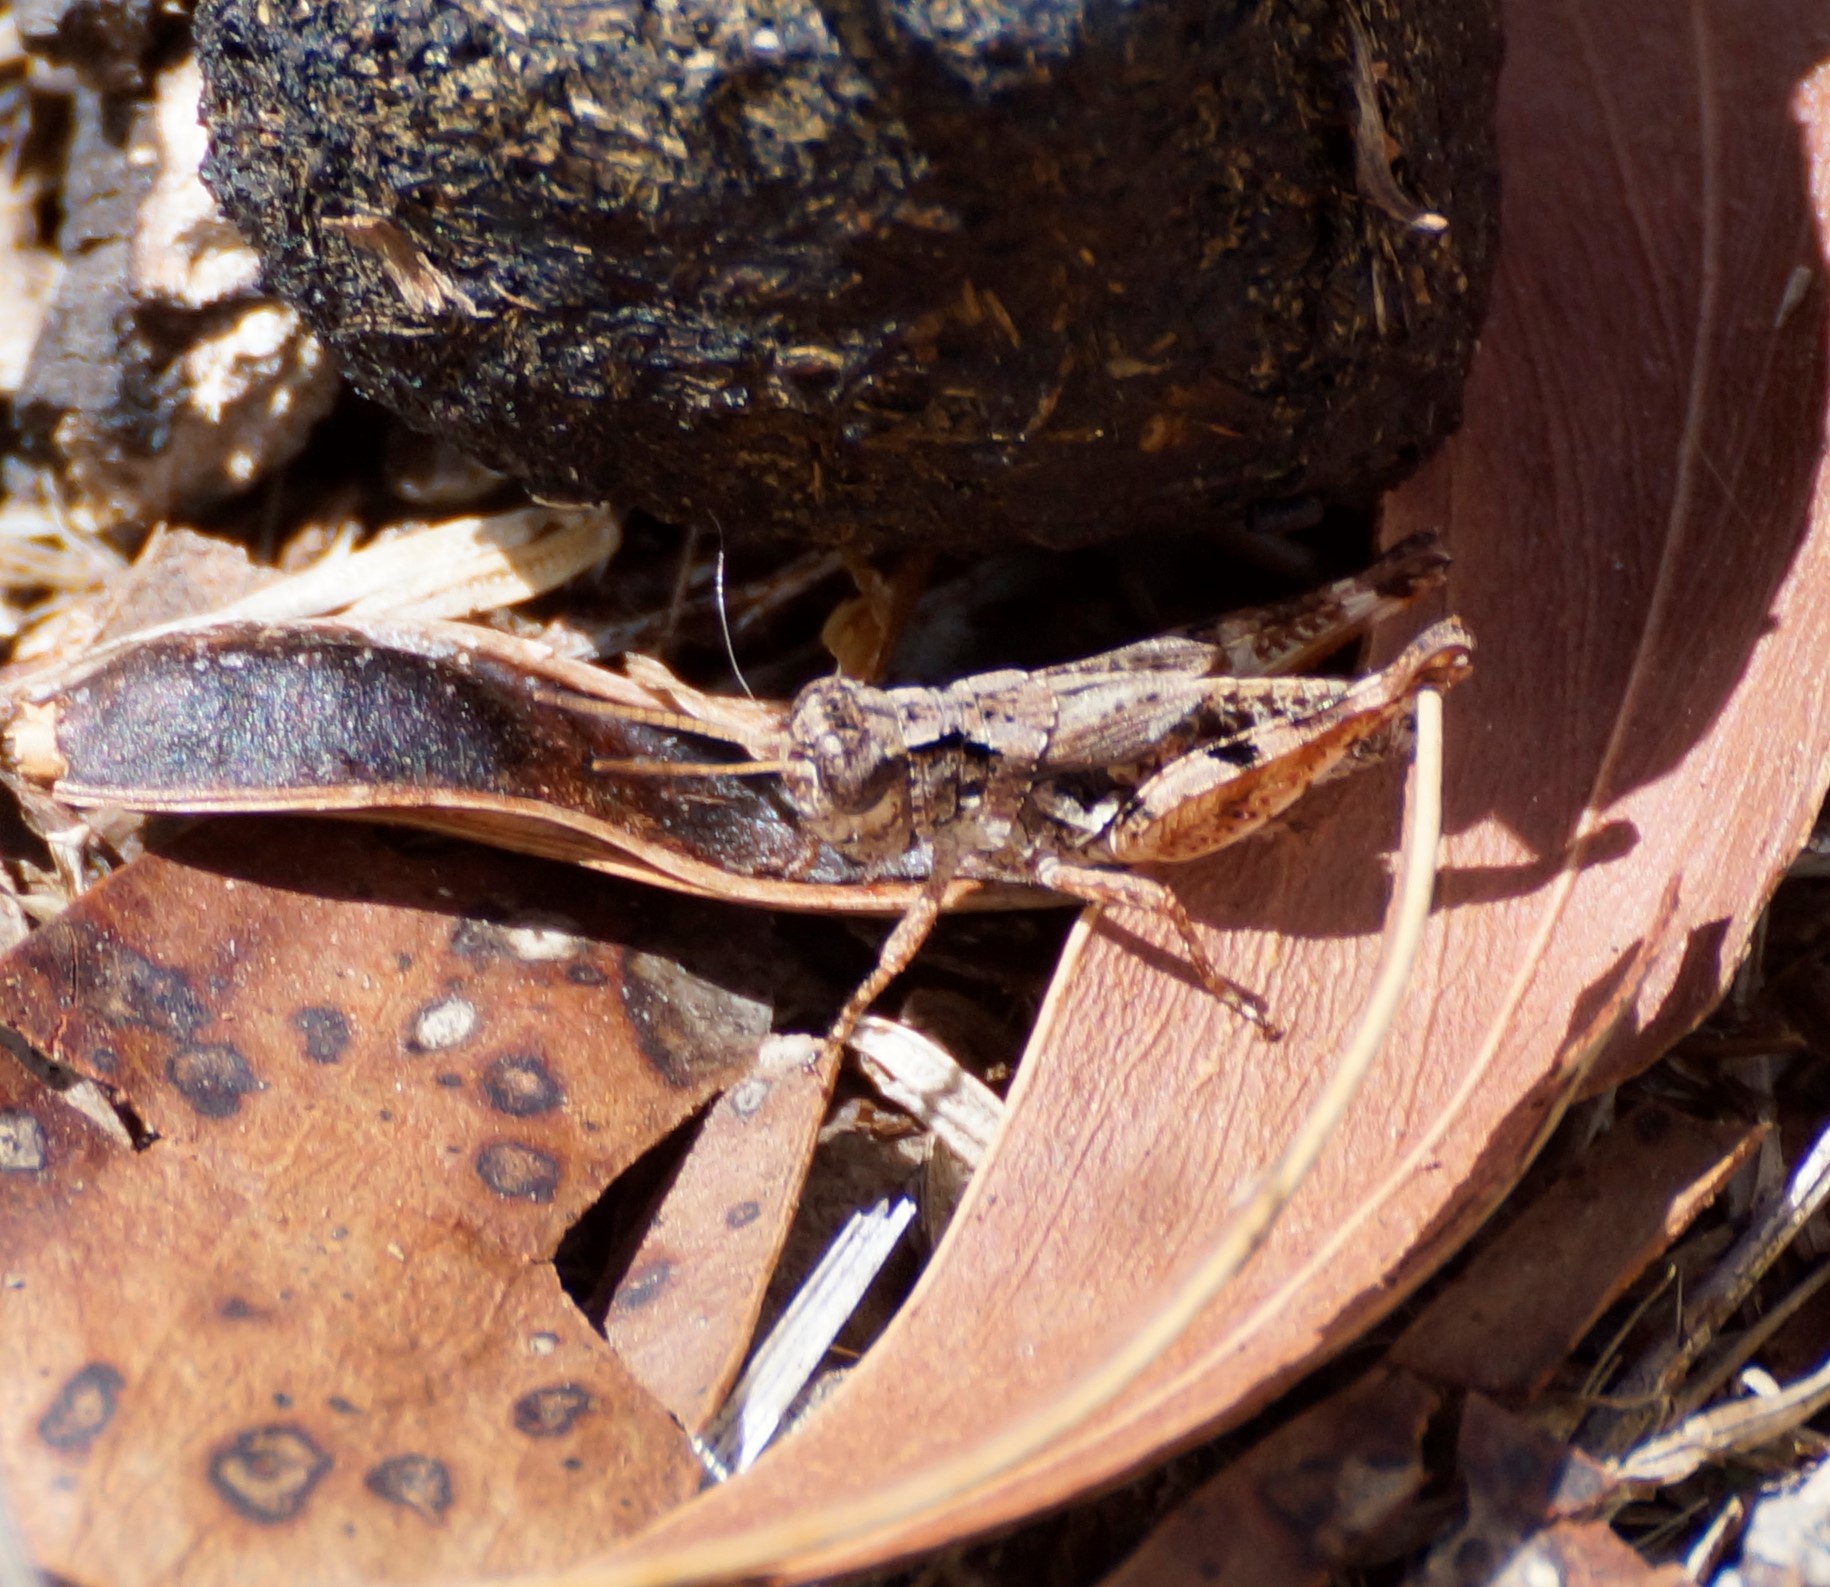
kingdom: Animalia
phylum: Arthropoda
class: Insecta
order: Orthoptera
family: Acrididae
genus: Phaulacridium
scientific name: Phaulacridium vittatum
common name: Wingless grasshopper
